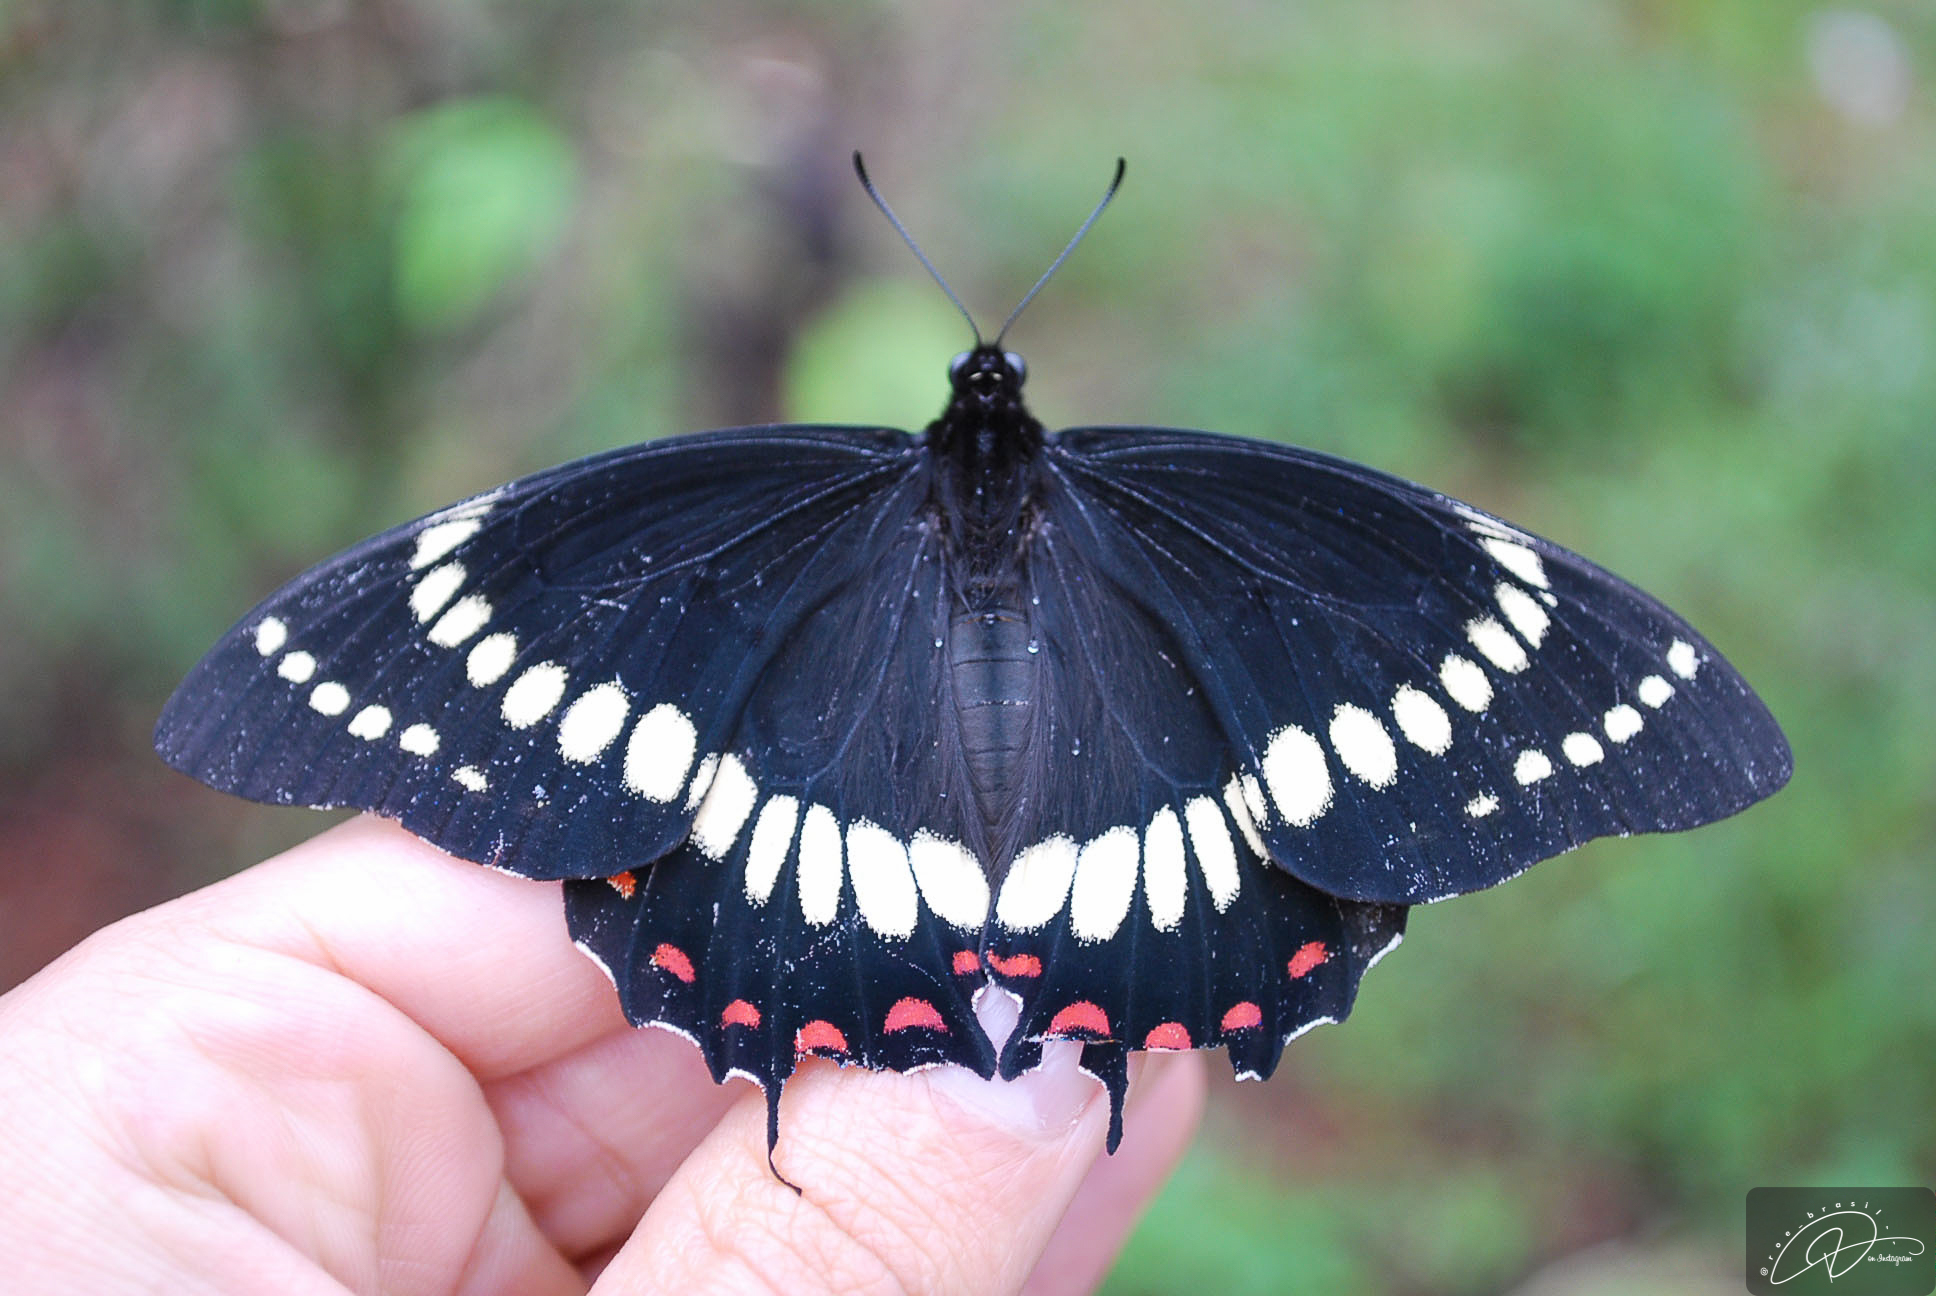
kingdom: Animalia
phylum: Arthropoda
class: Insecta
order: Lepidoptera
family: Papilionidae
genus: Papilio
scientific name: Papilio scamander
